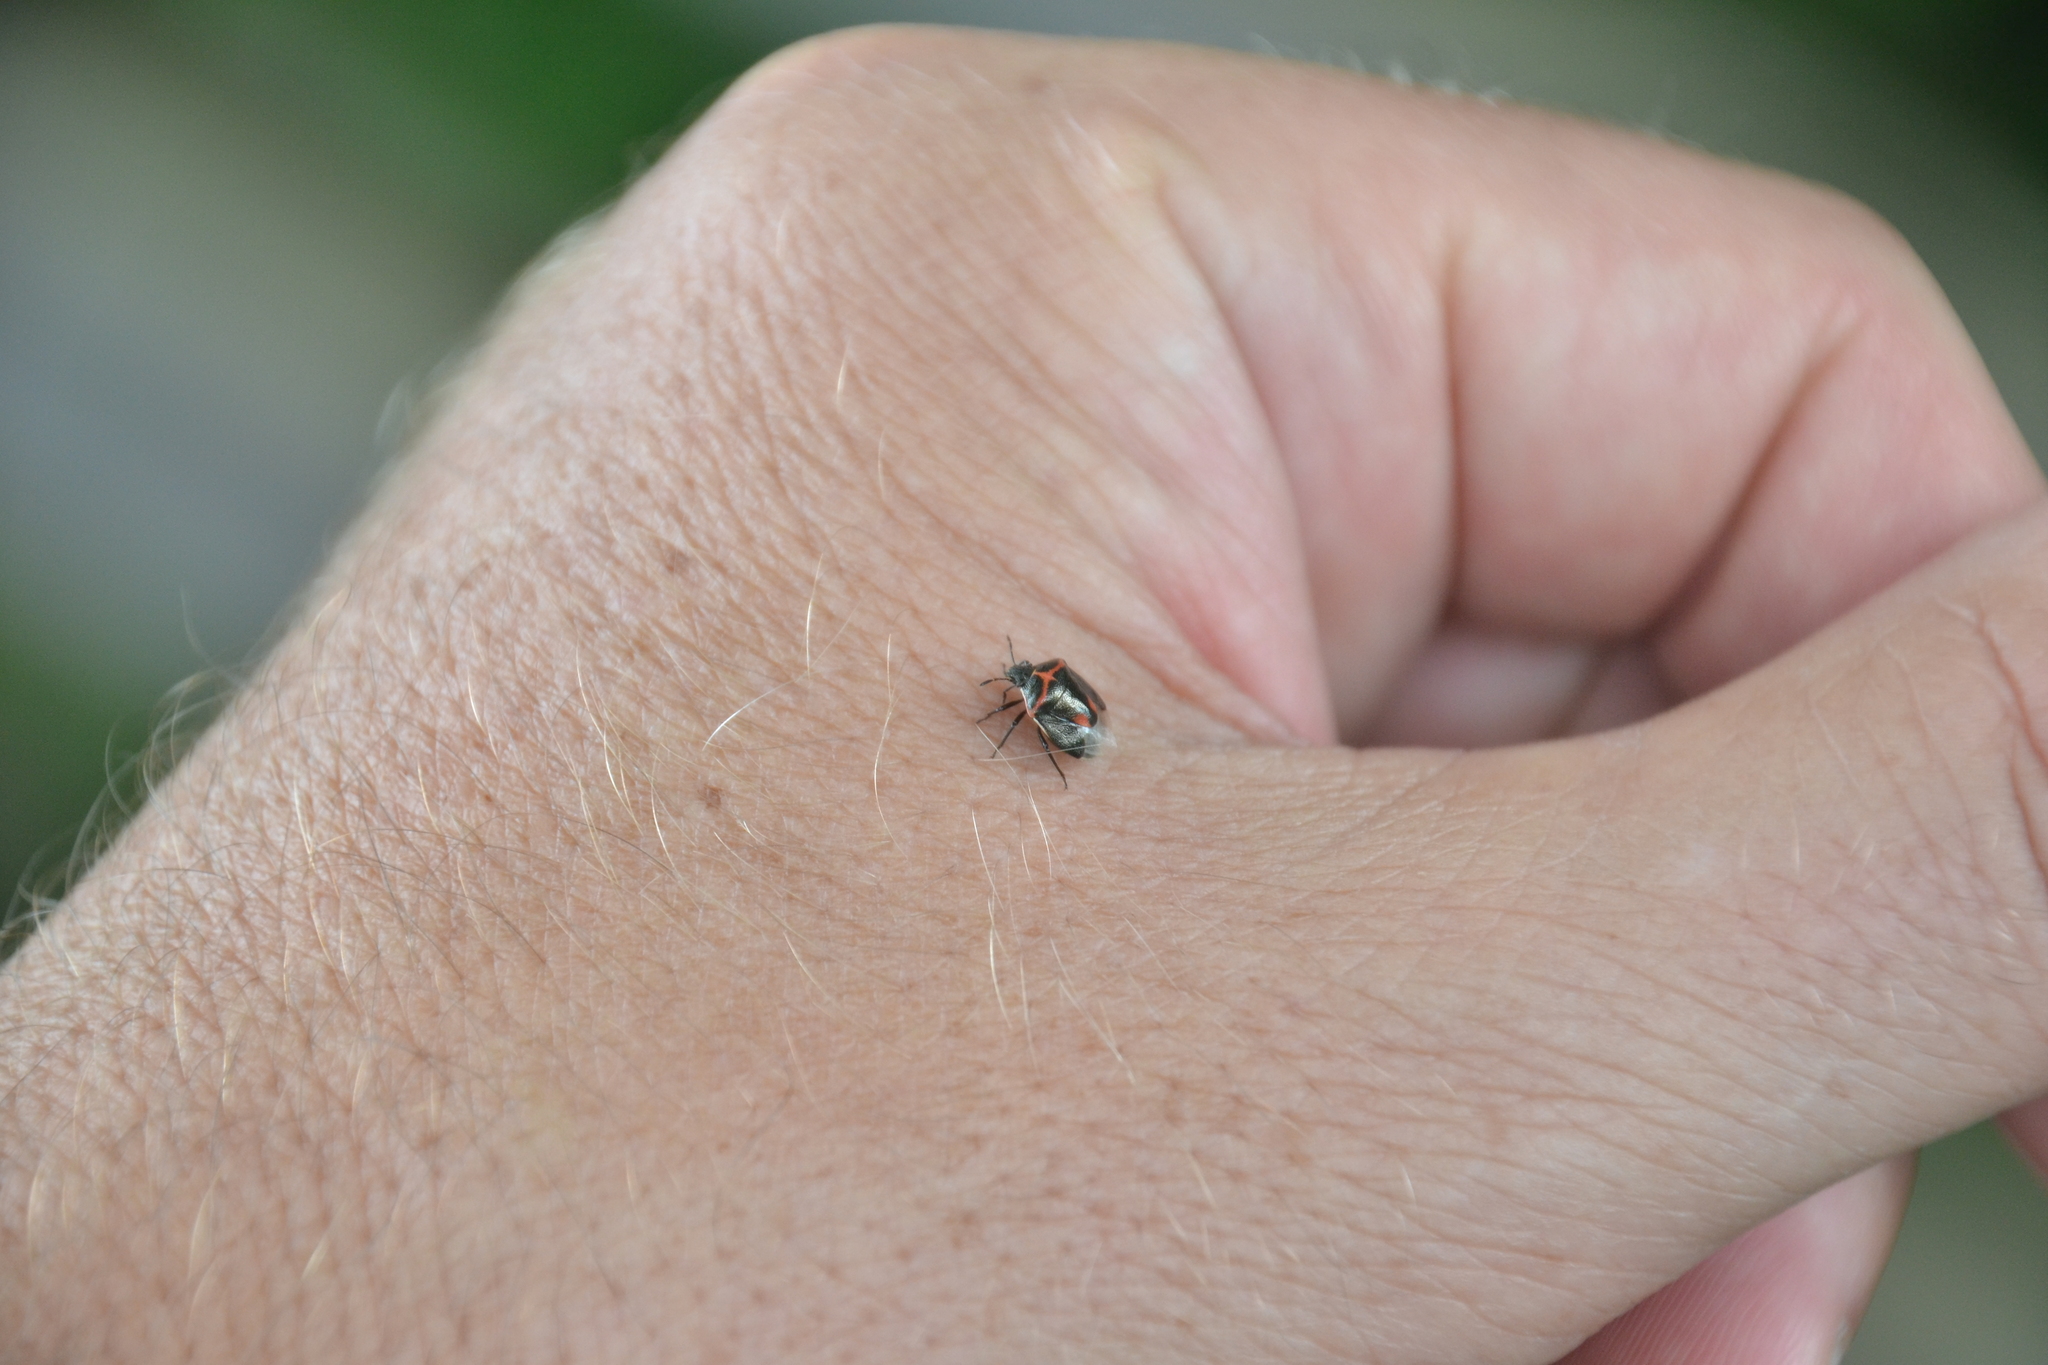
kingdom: Animalia
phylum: Arthropoda
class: Insecta
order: Hemiptera
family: Pentatomidae
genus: Cosmopepla
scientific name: Cosmopepla lintneriana
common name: Twice-stabbed stink bug
